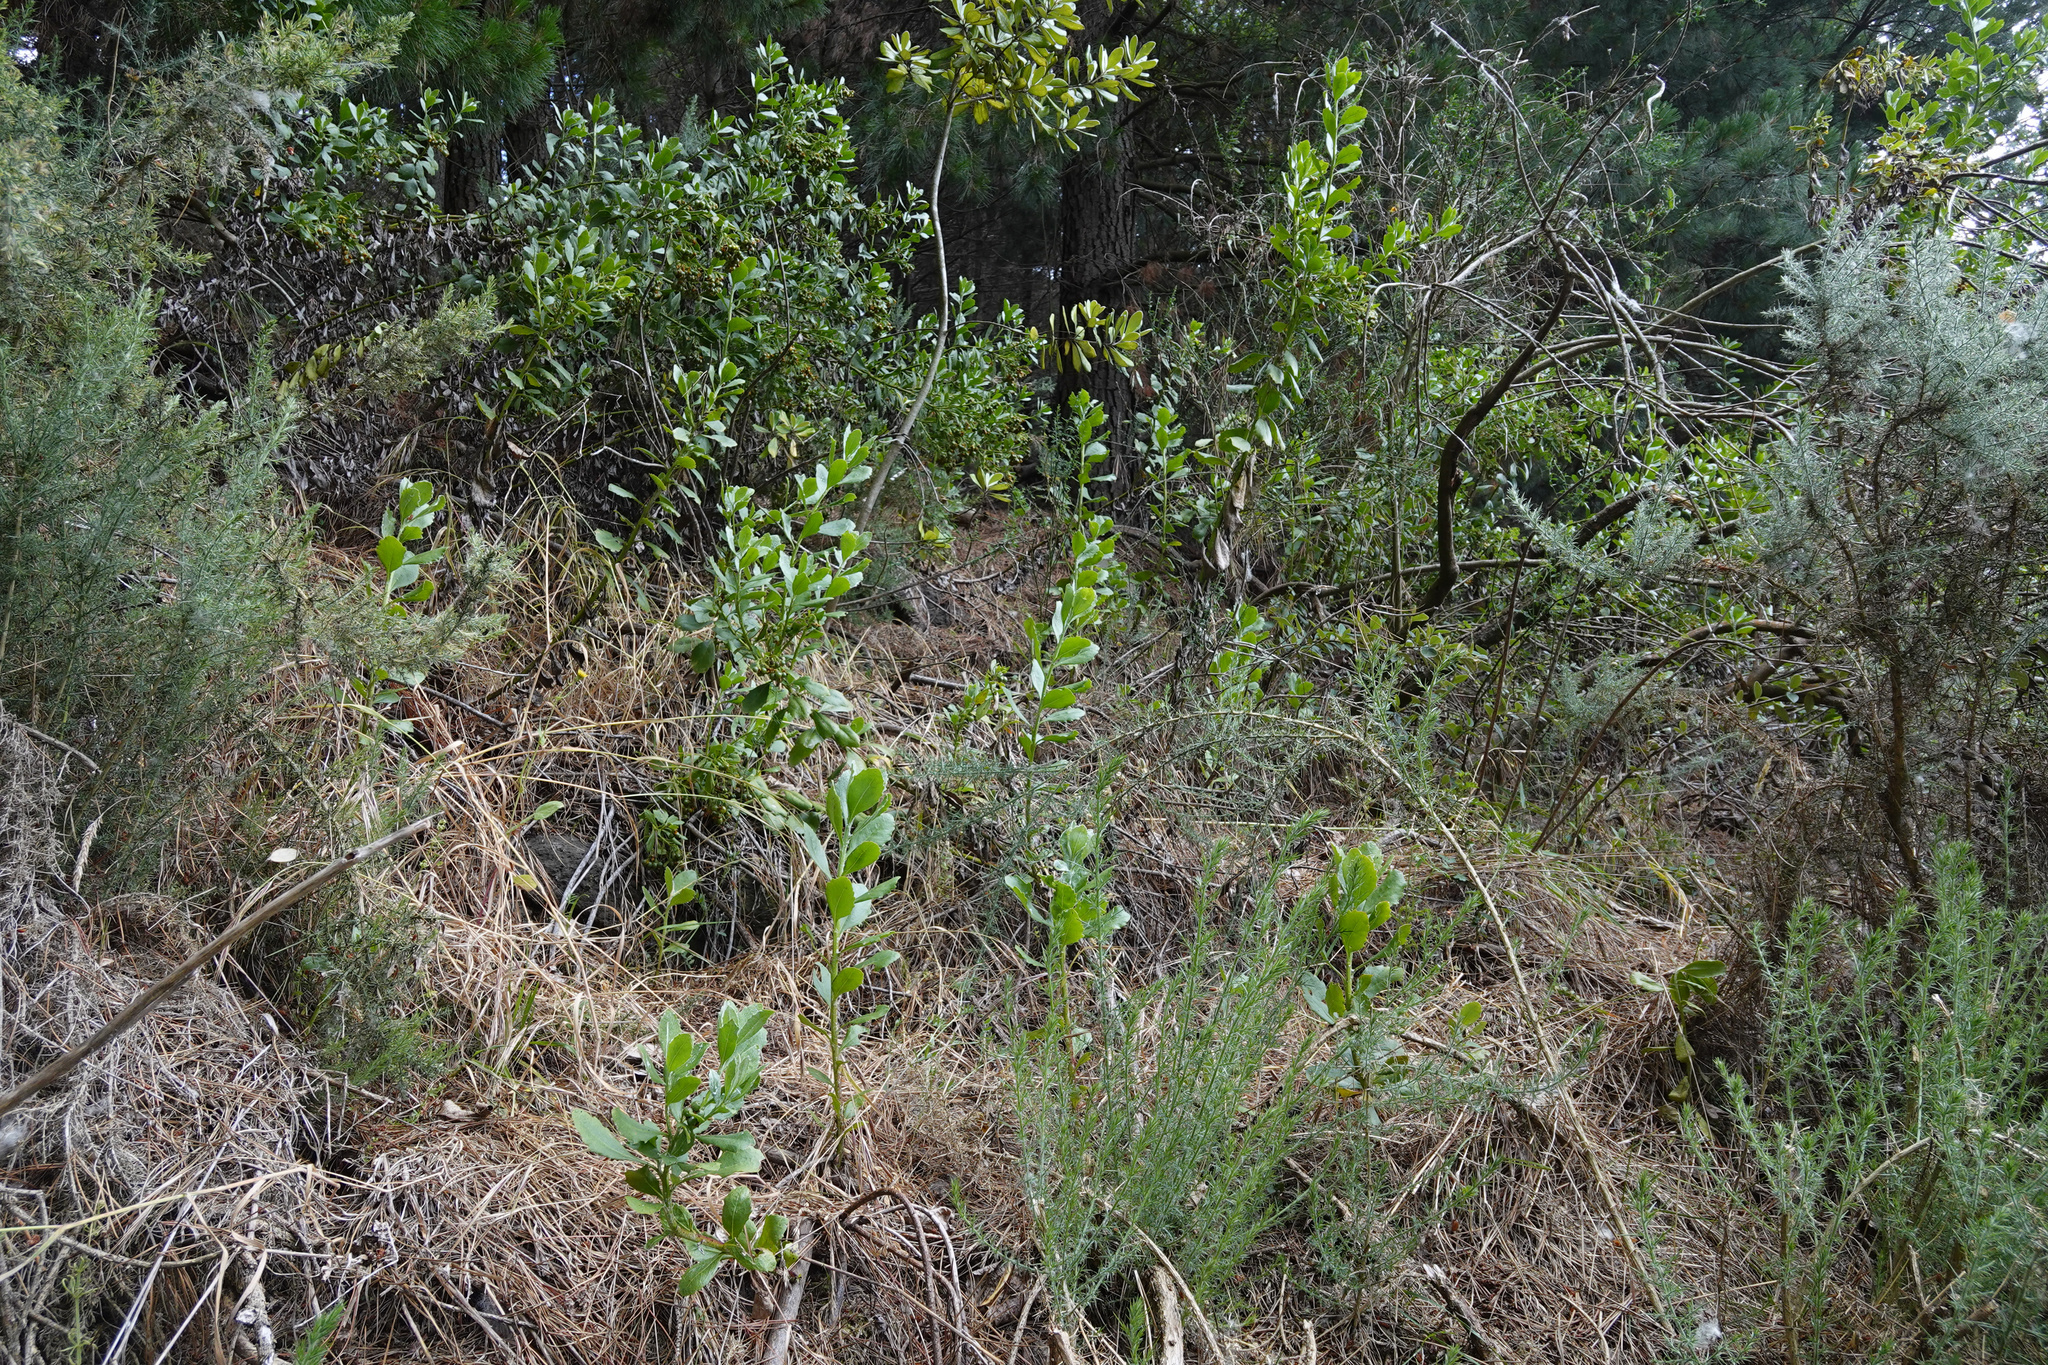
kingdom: Plantae
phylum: Tracheophyta
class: Magnoliopsida
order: Asterales
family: Asteraceae
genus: Osteospermum
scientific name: Osteospermum moniliferum
